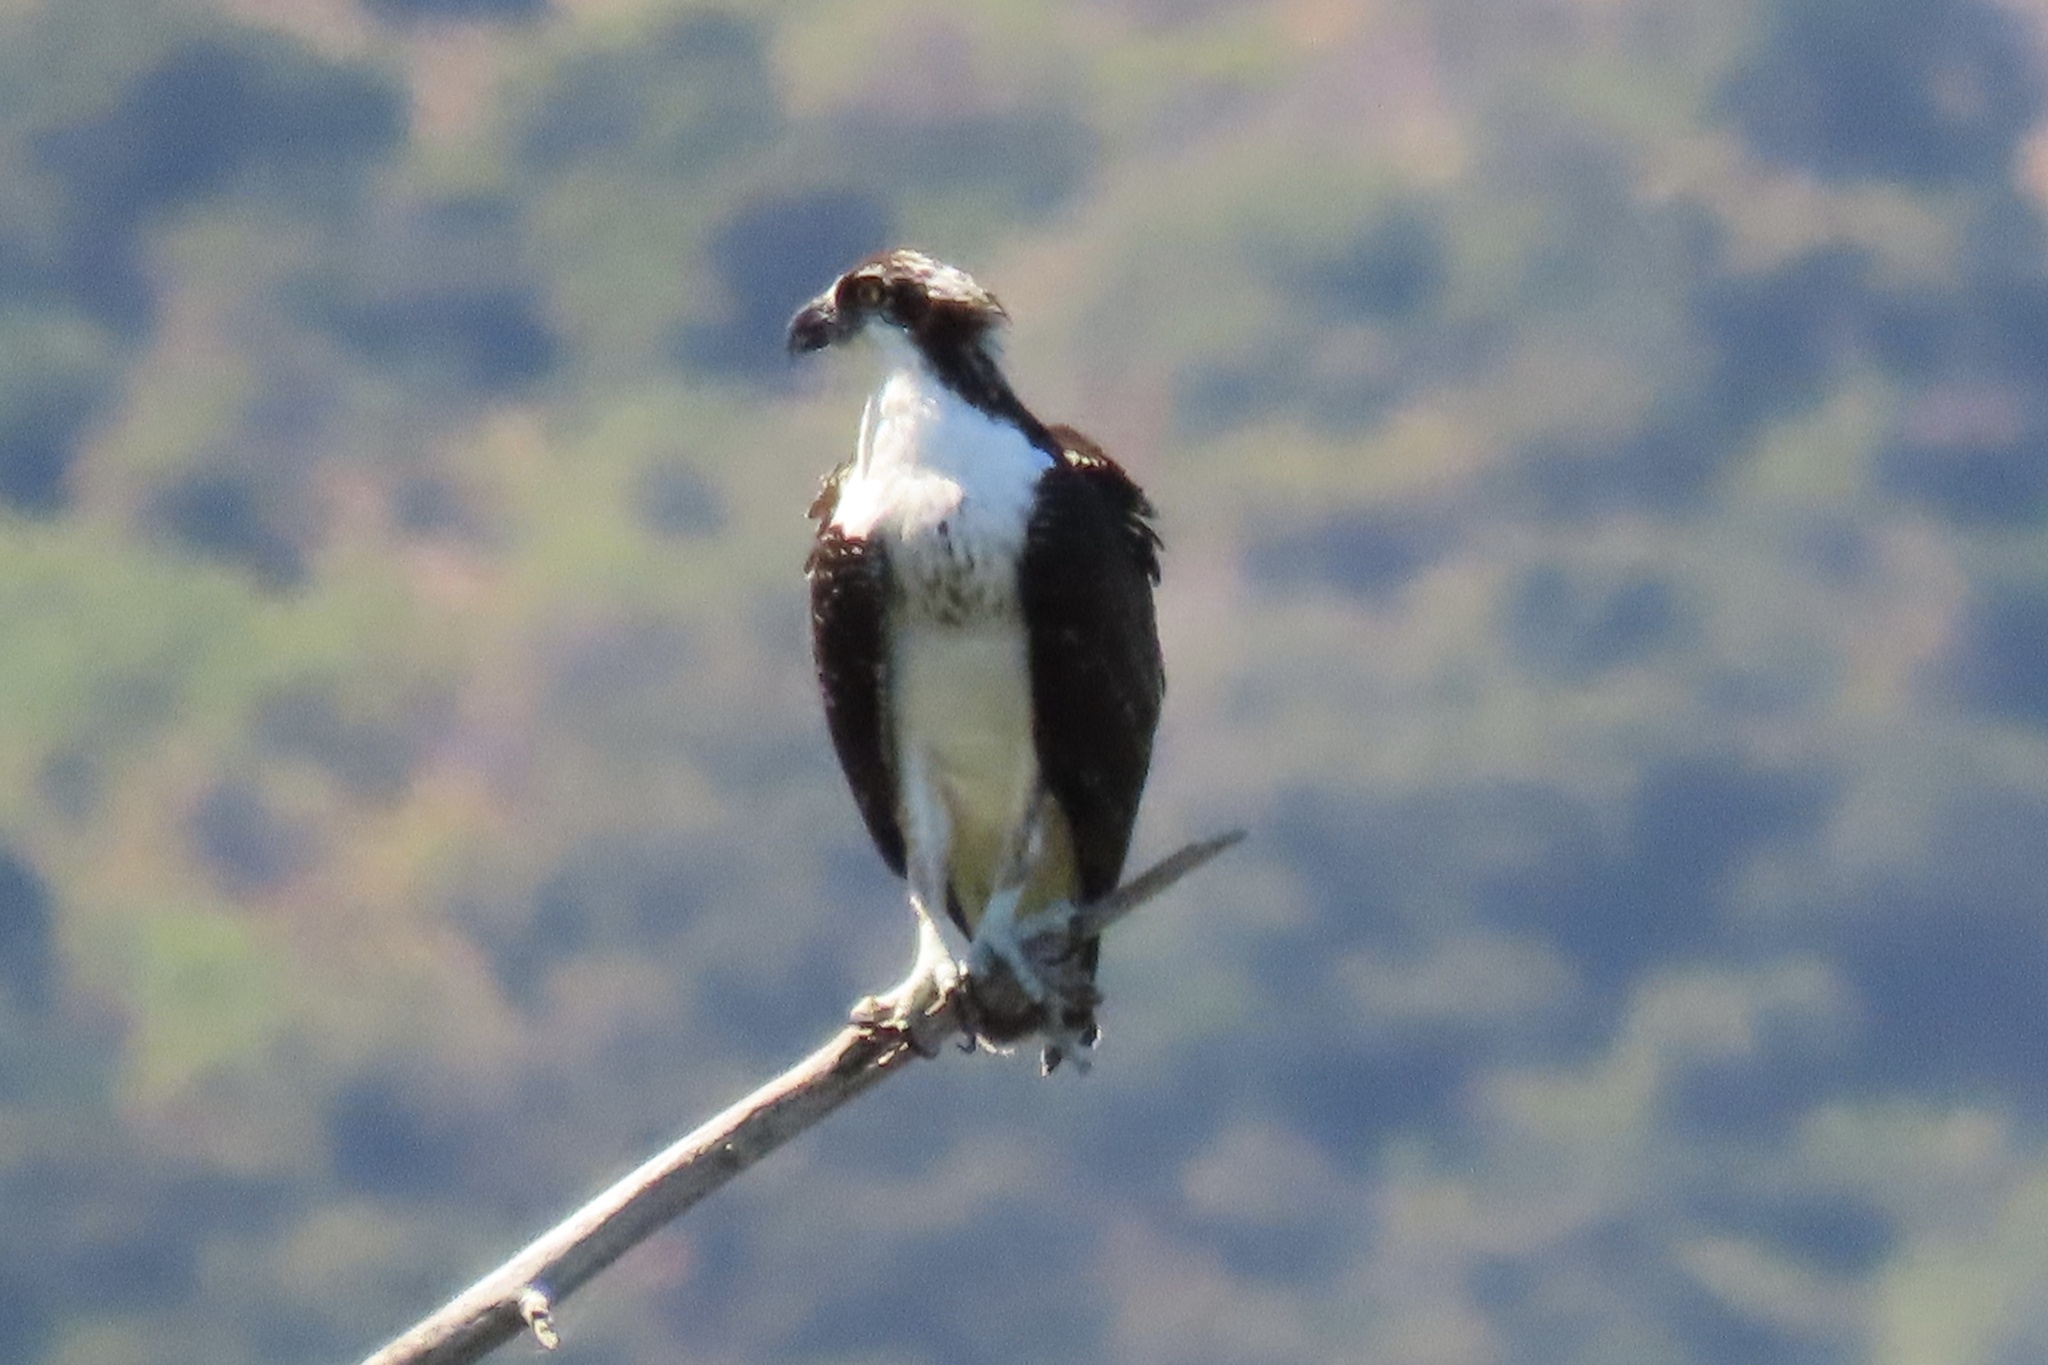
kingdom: Animalia
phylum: Chordata
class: Aves
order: Accipitriformes
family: Pandionidae
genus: Pandion
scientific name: Pandion haliaetus
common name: Osprey
